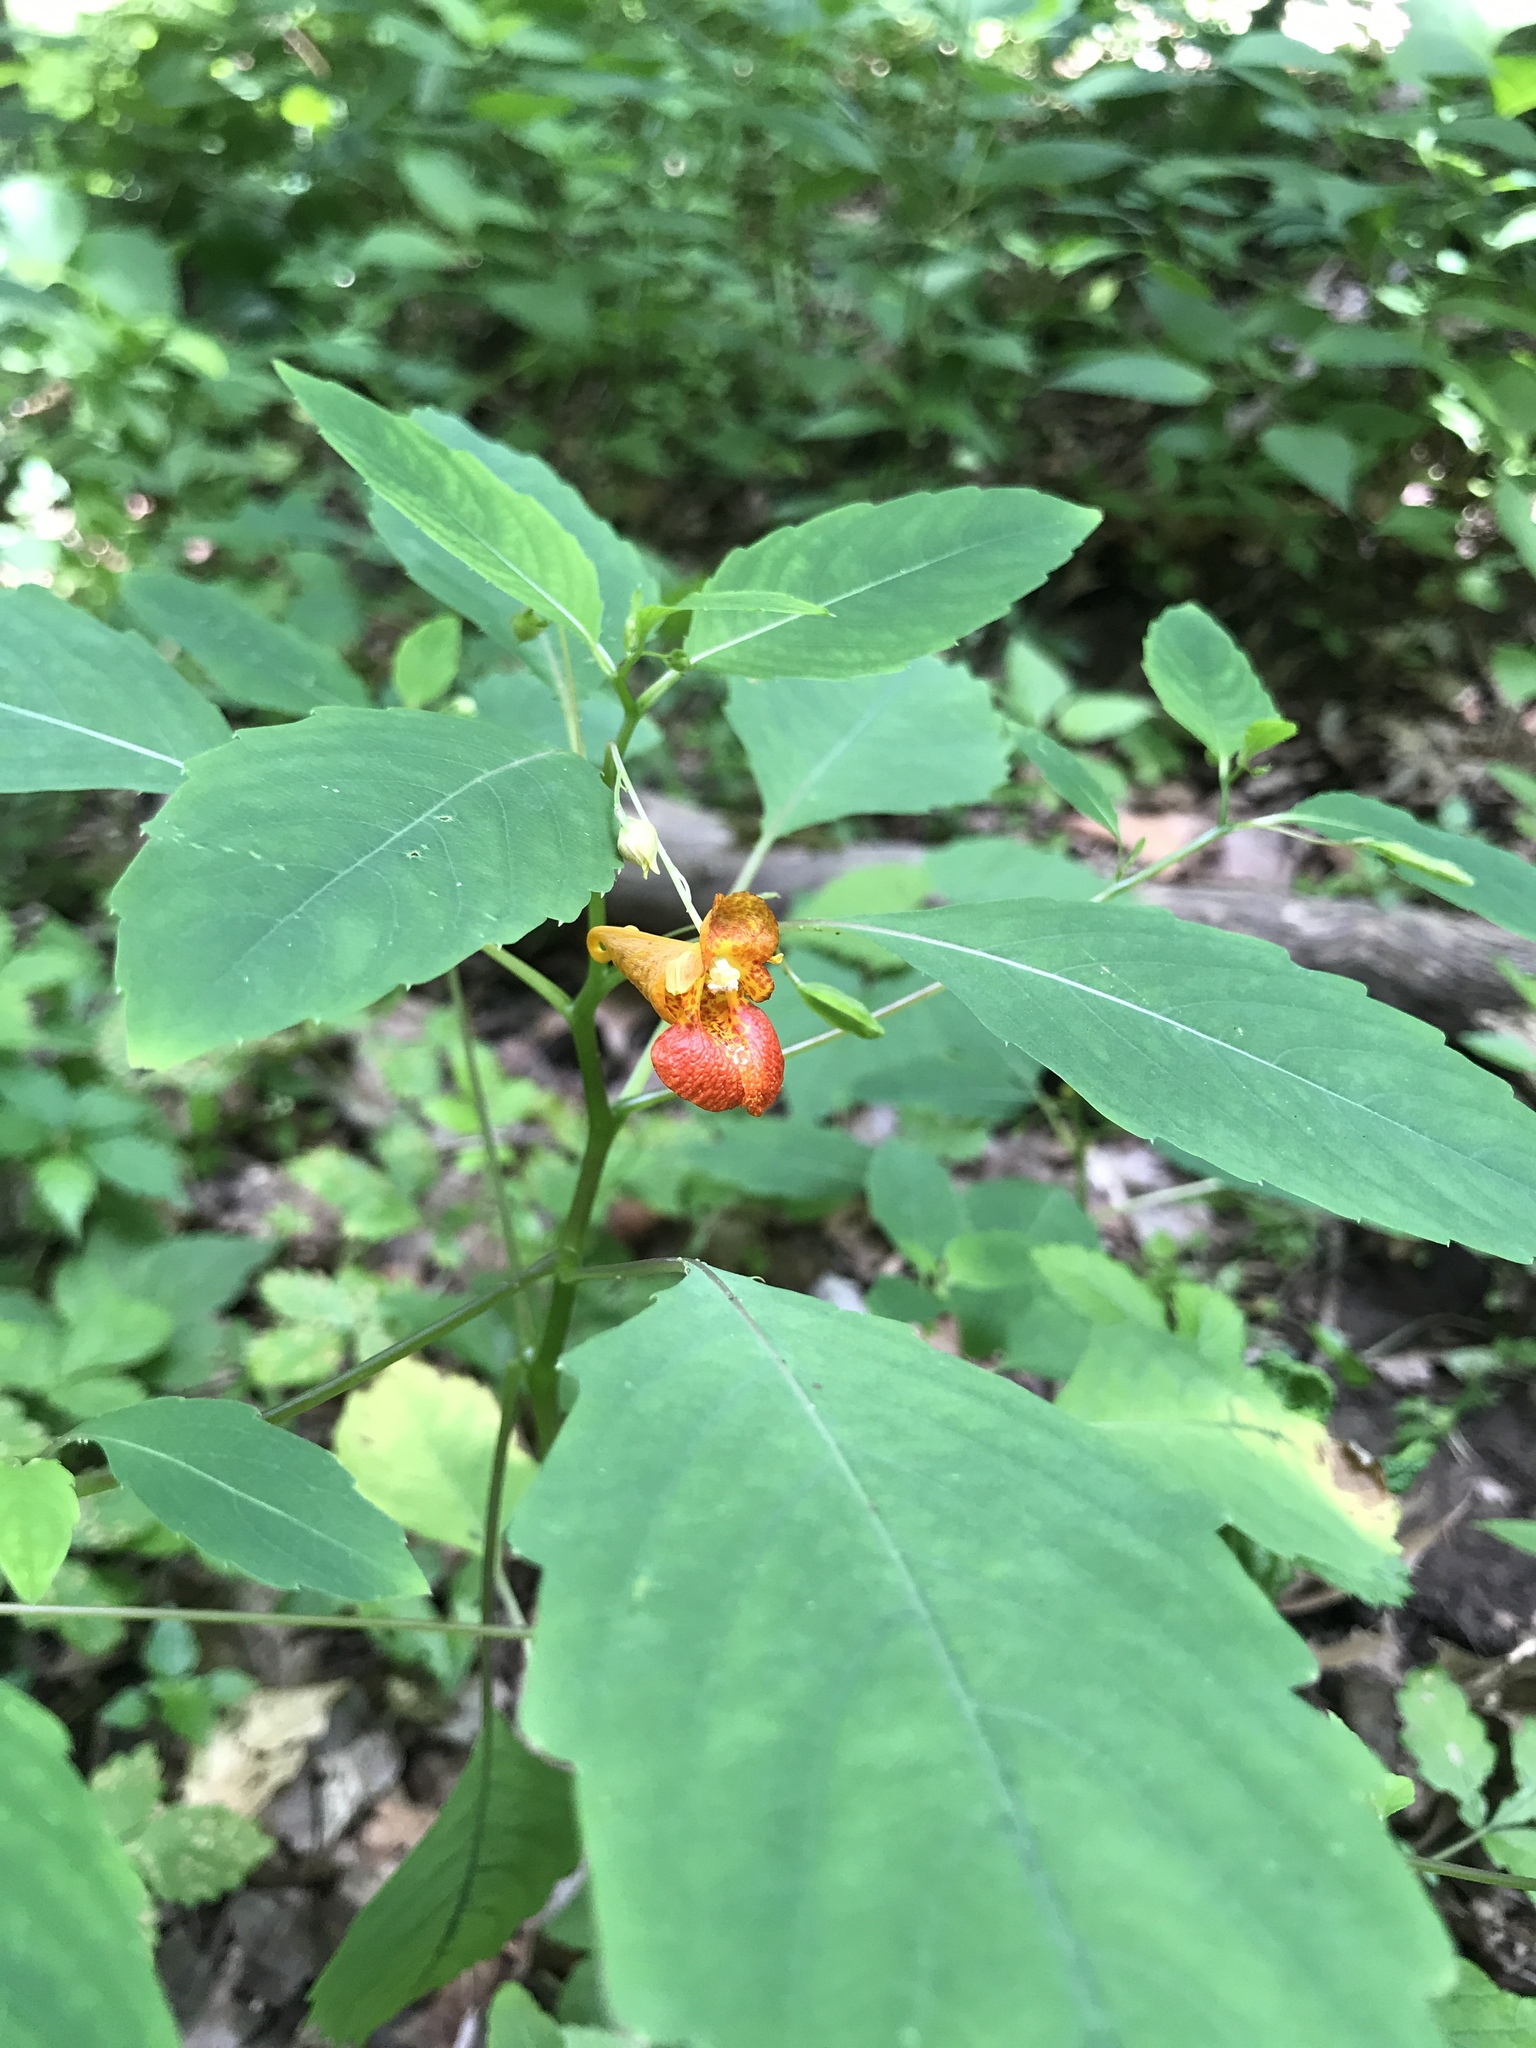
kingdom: Plantae
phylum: Tracheophyta
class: Magnoliopsida
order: Ericales
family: Balsaminaceae
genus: Impatiens
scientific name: Impatiens capensis
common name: Orange balsam
